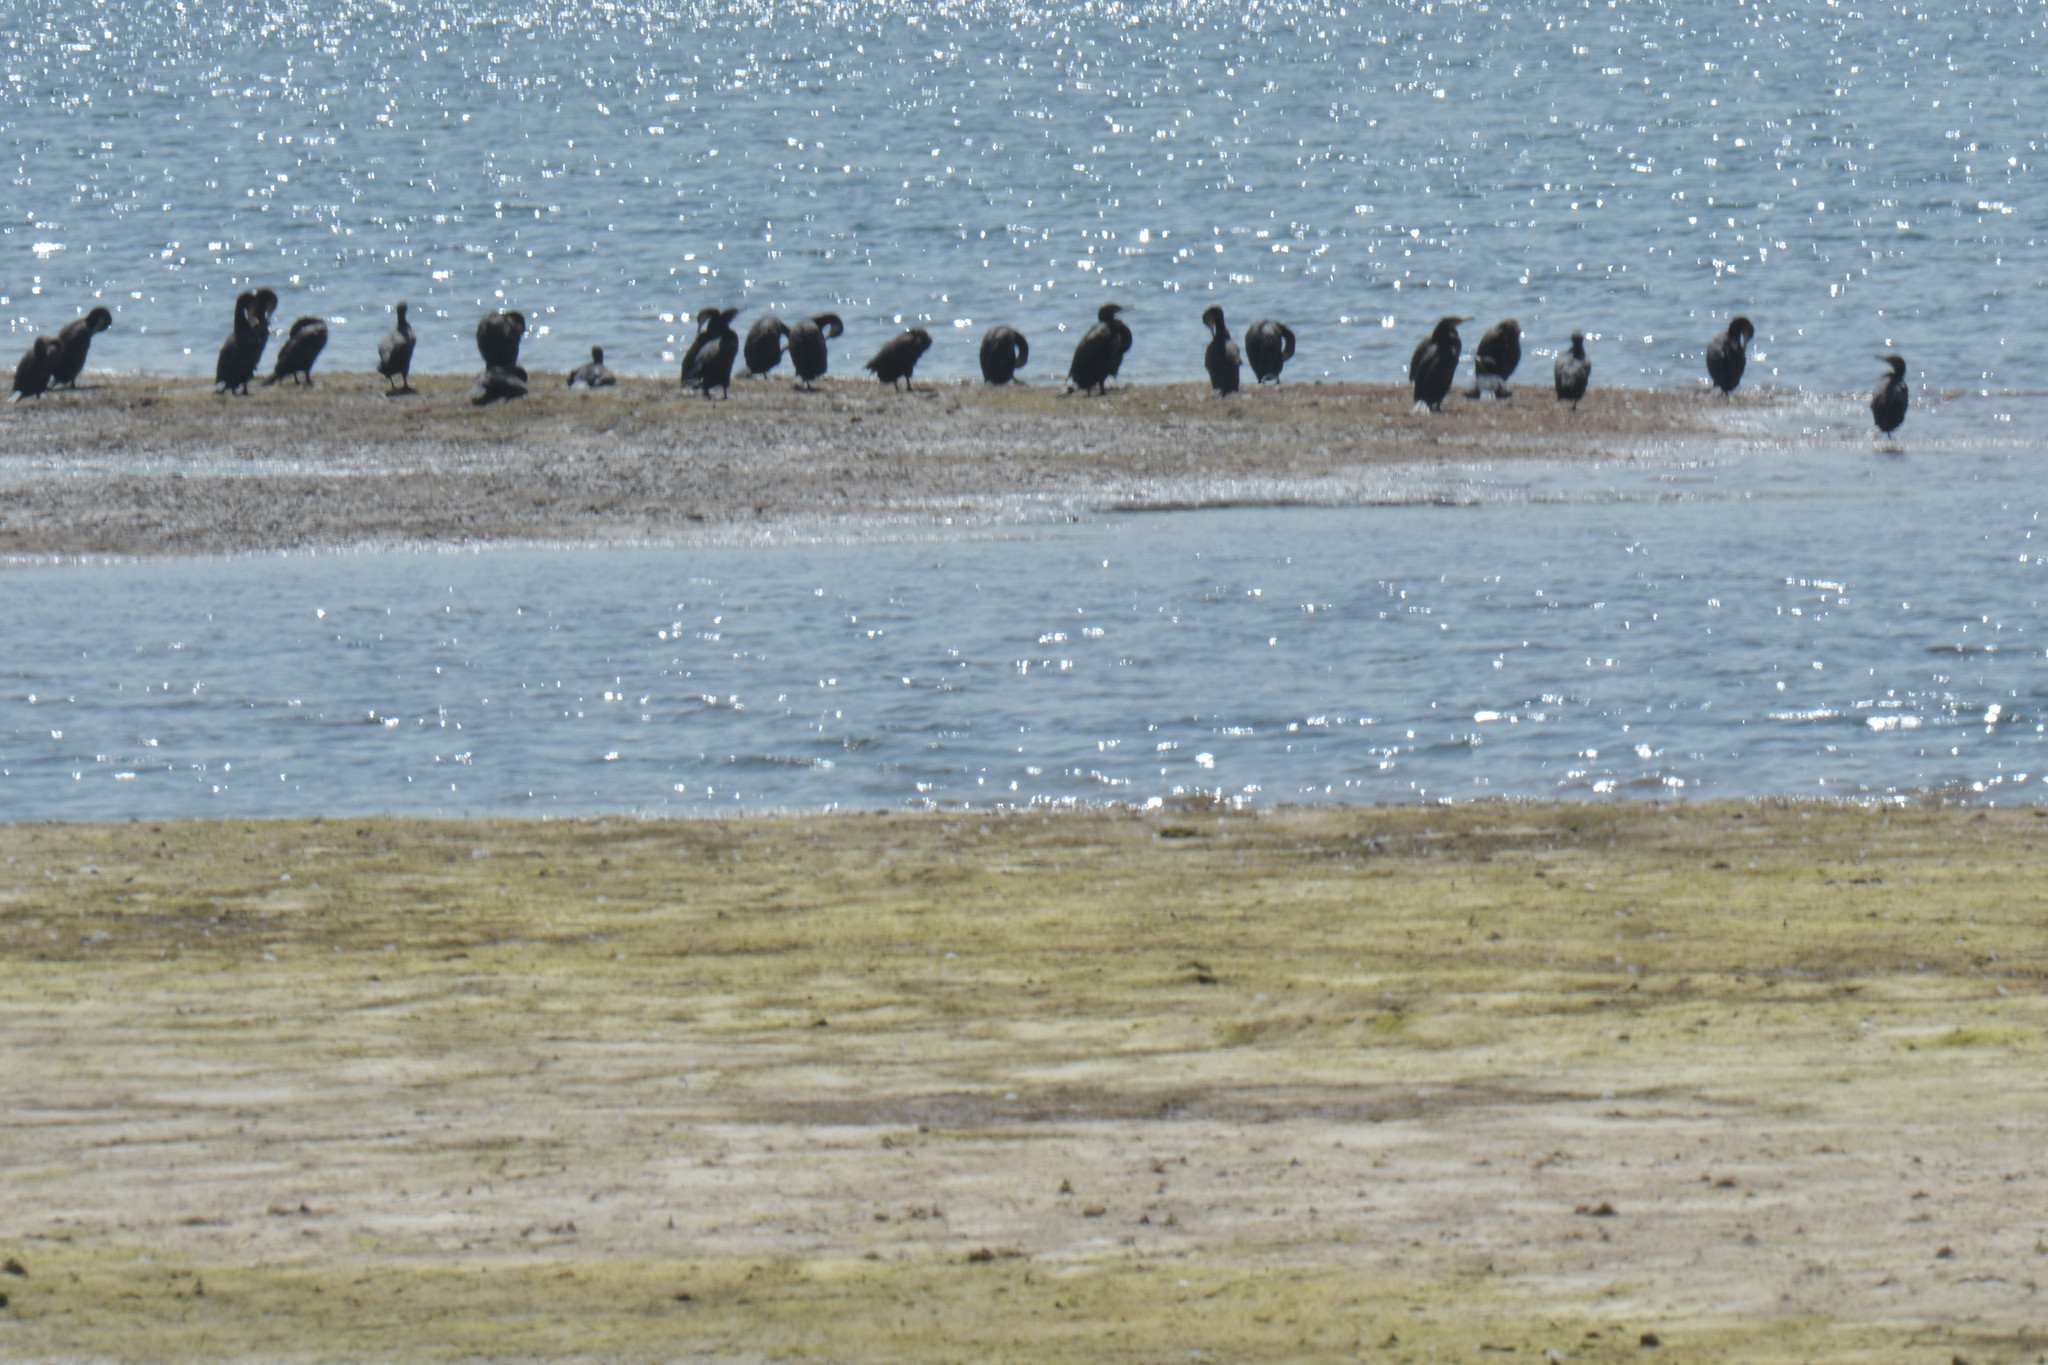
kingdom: Animalia
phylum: Chordata
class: Aves
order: Suliformes
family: Phalacrocoracidae
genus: Phalacrocorax
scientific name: Phalacrocorax carbo
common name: Great cormorant
